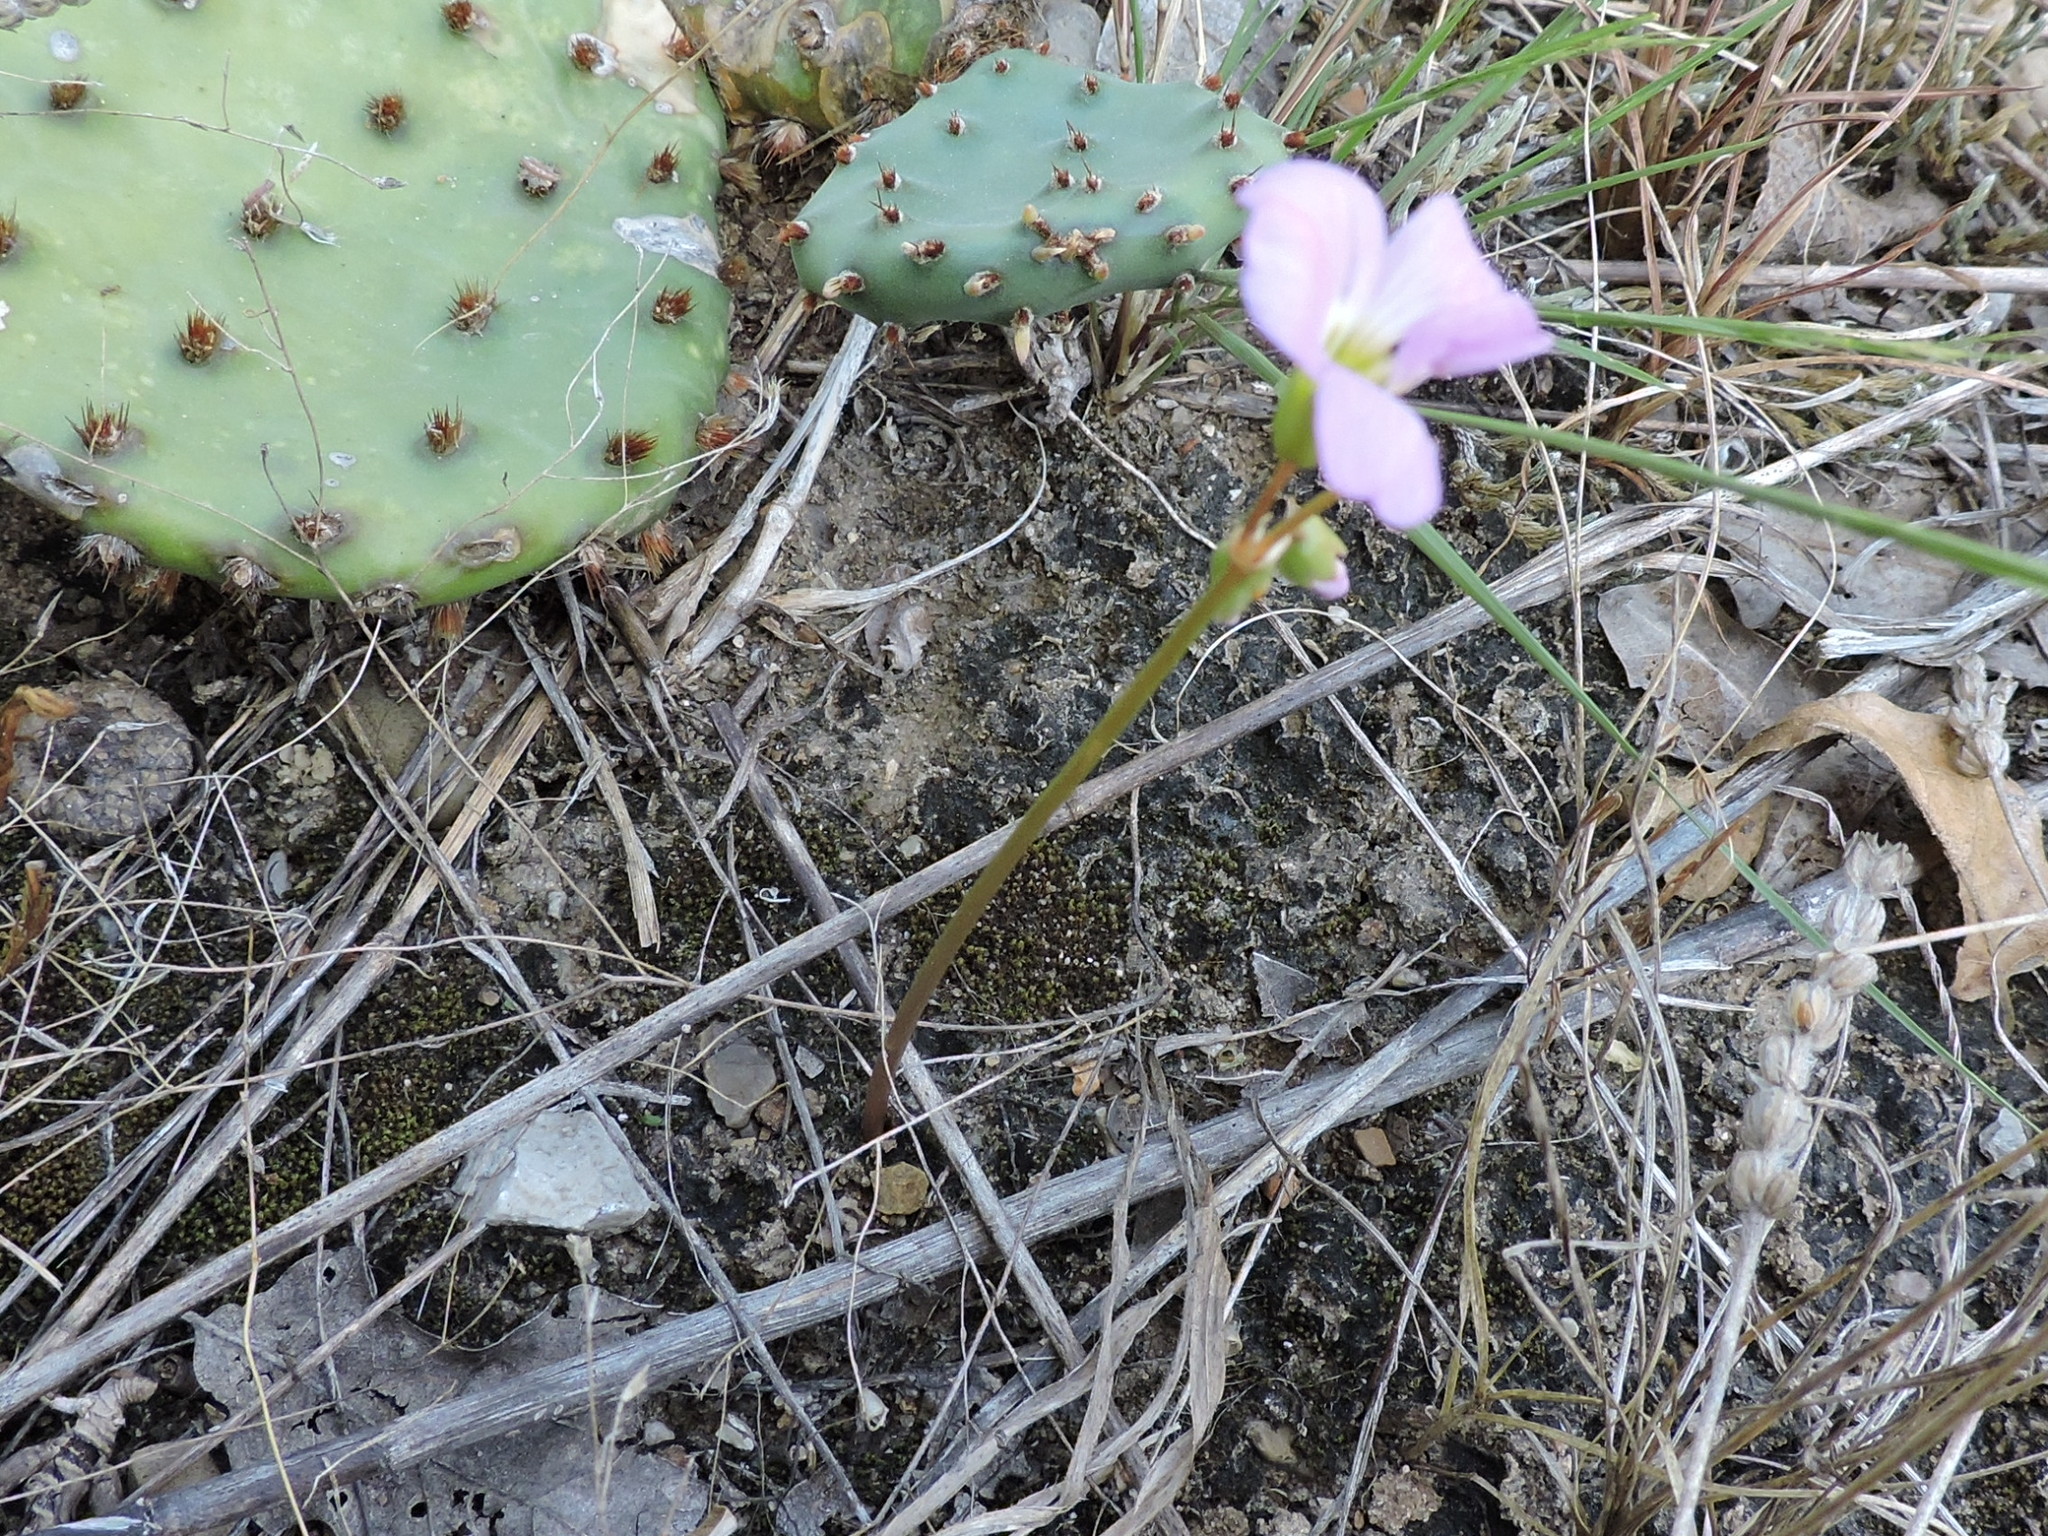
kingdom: Plantae
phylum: Tracheophyta
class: Magnoliopsida
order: Oxalidales
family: Oxalidaceae
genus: Oxalis
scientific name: Oxalis violacea
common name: Violet wood-sorrel
